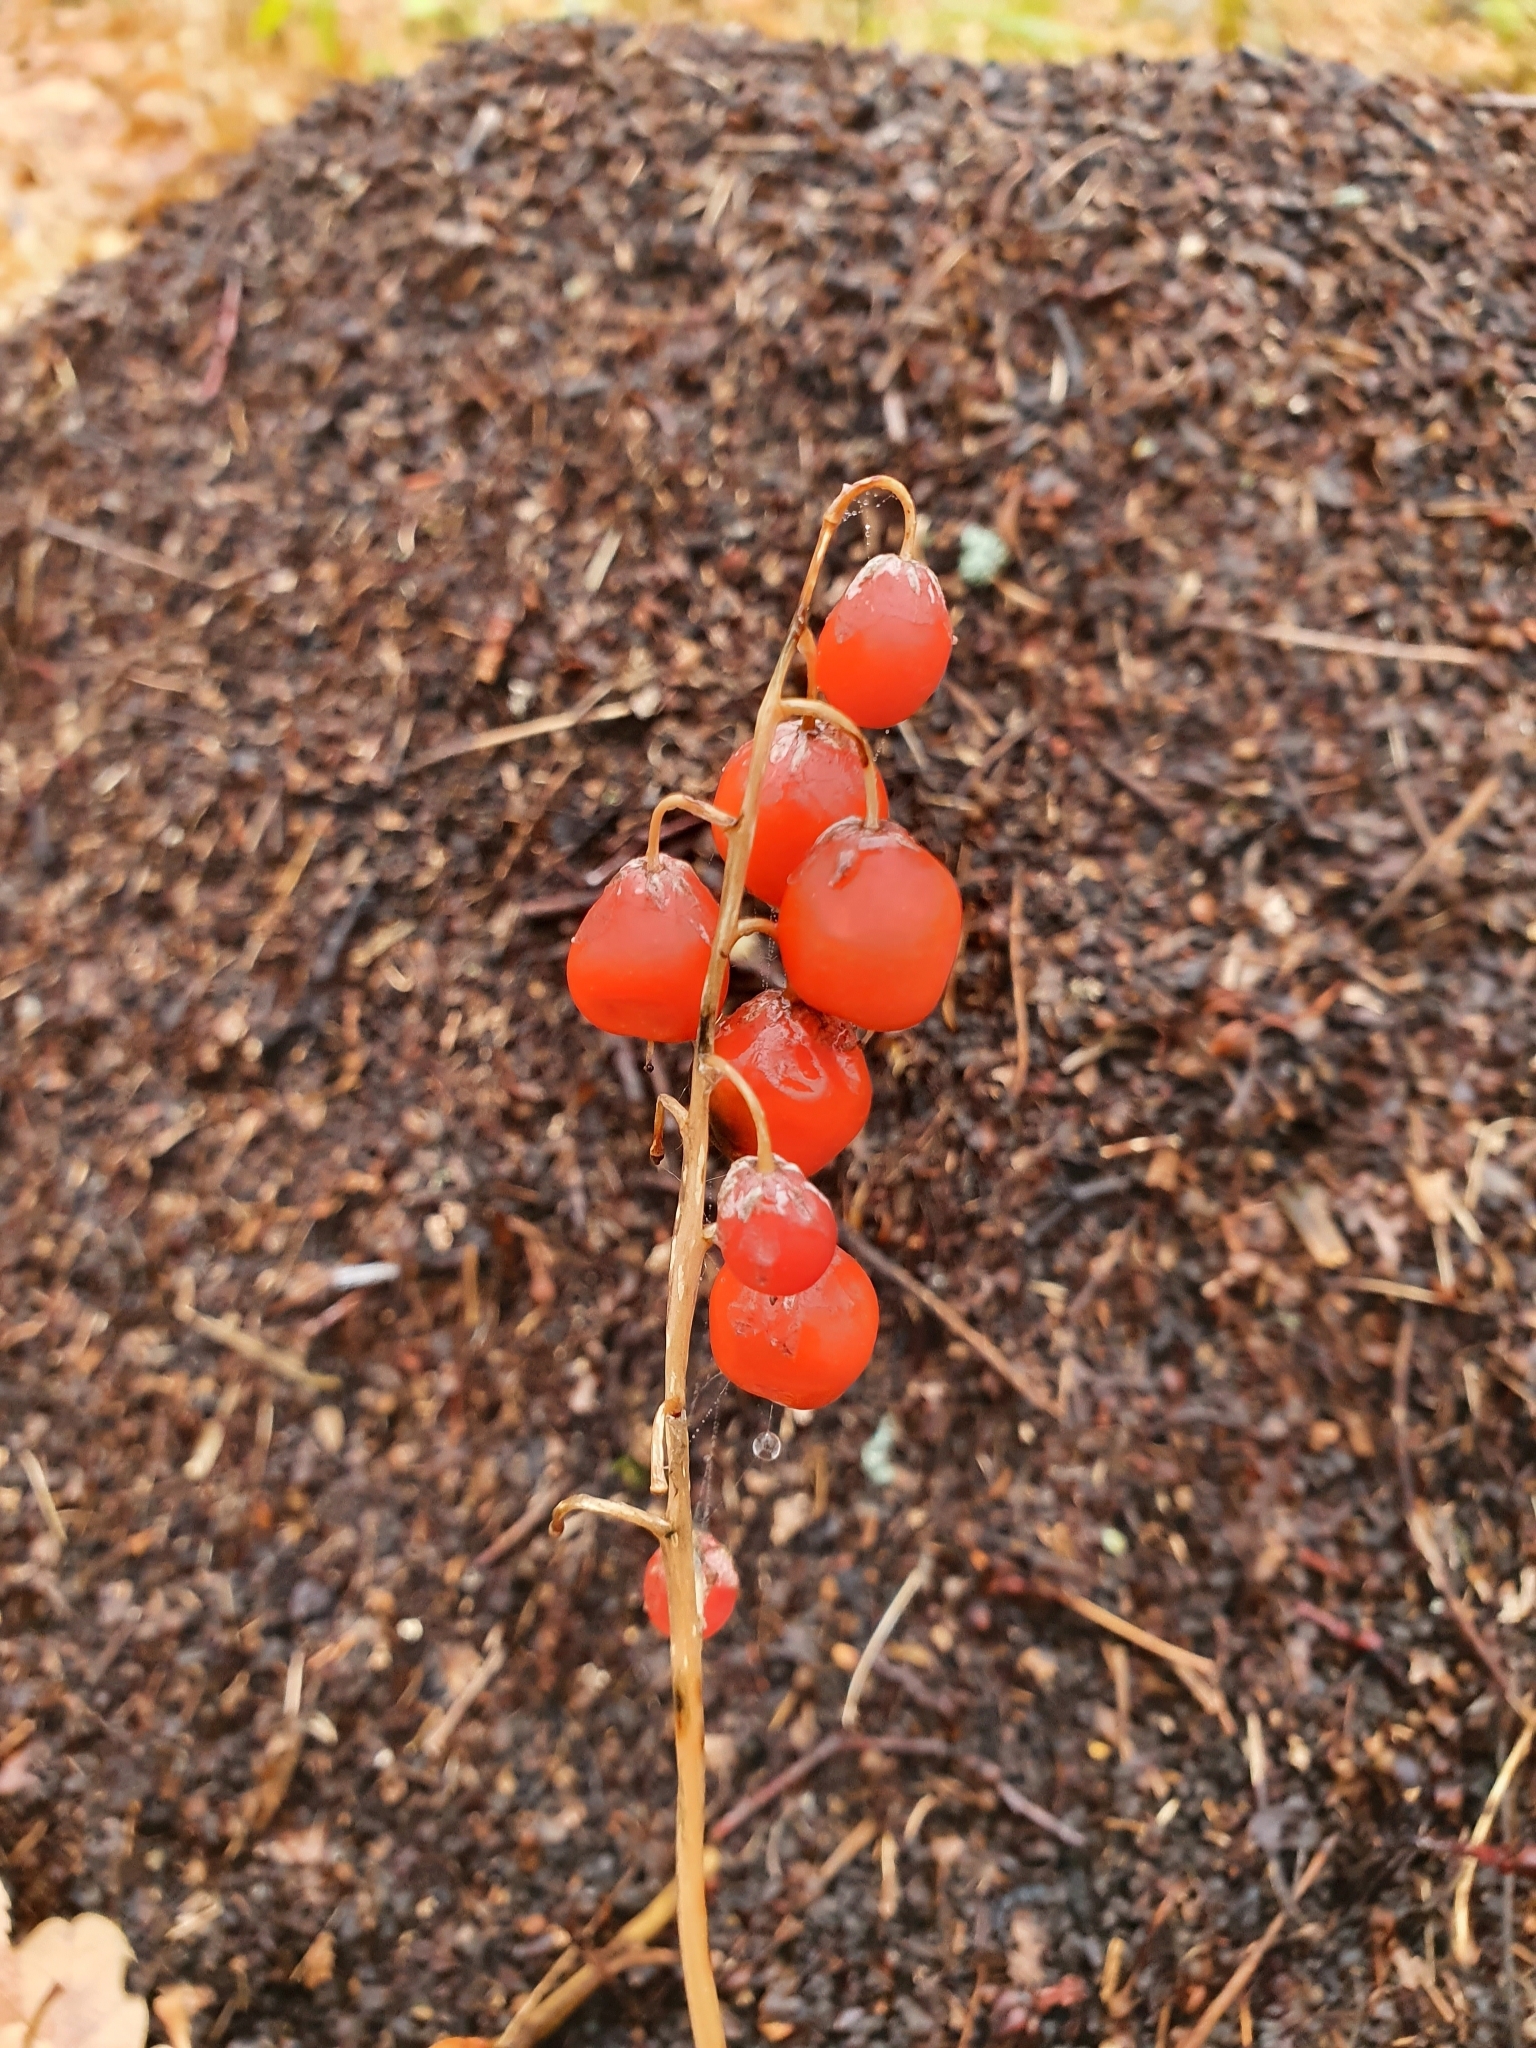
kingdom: Plantae
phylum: Tracheophyta
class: Liliopsida
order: Asparagales
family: Asparagaceae
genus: Convallaria
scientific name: Convallaria majalis
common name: Lily-of-the-valley
